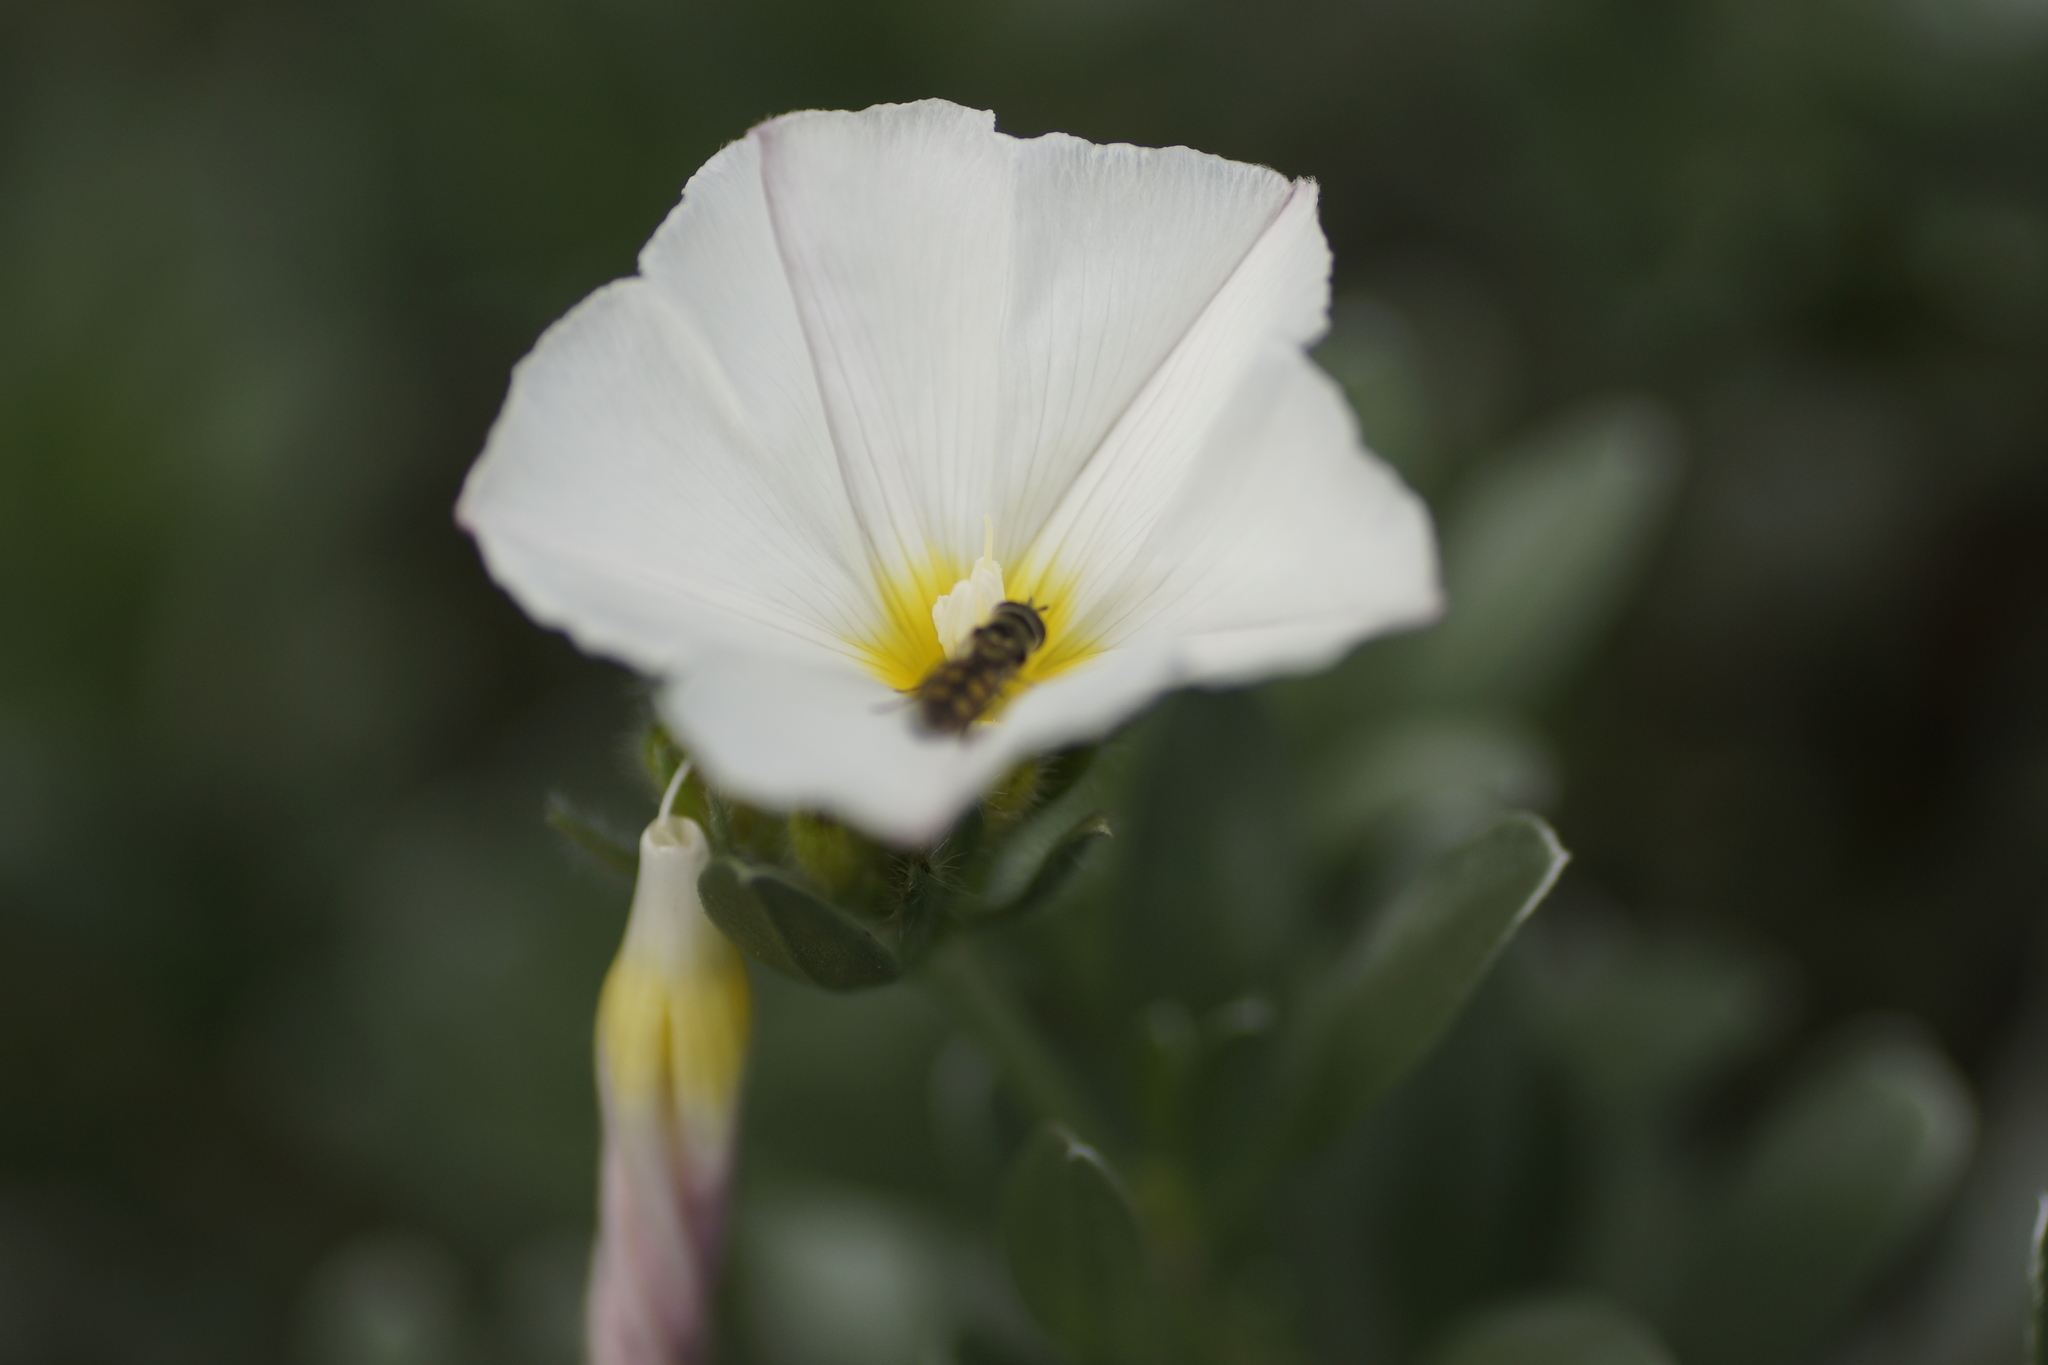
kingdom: Animalia
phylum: Arthropoda
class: Insecta
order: Diptera
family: Syrphidae
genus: Melangyna
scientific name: Melangyna viridiceps
